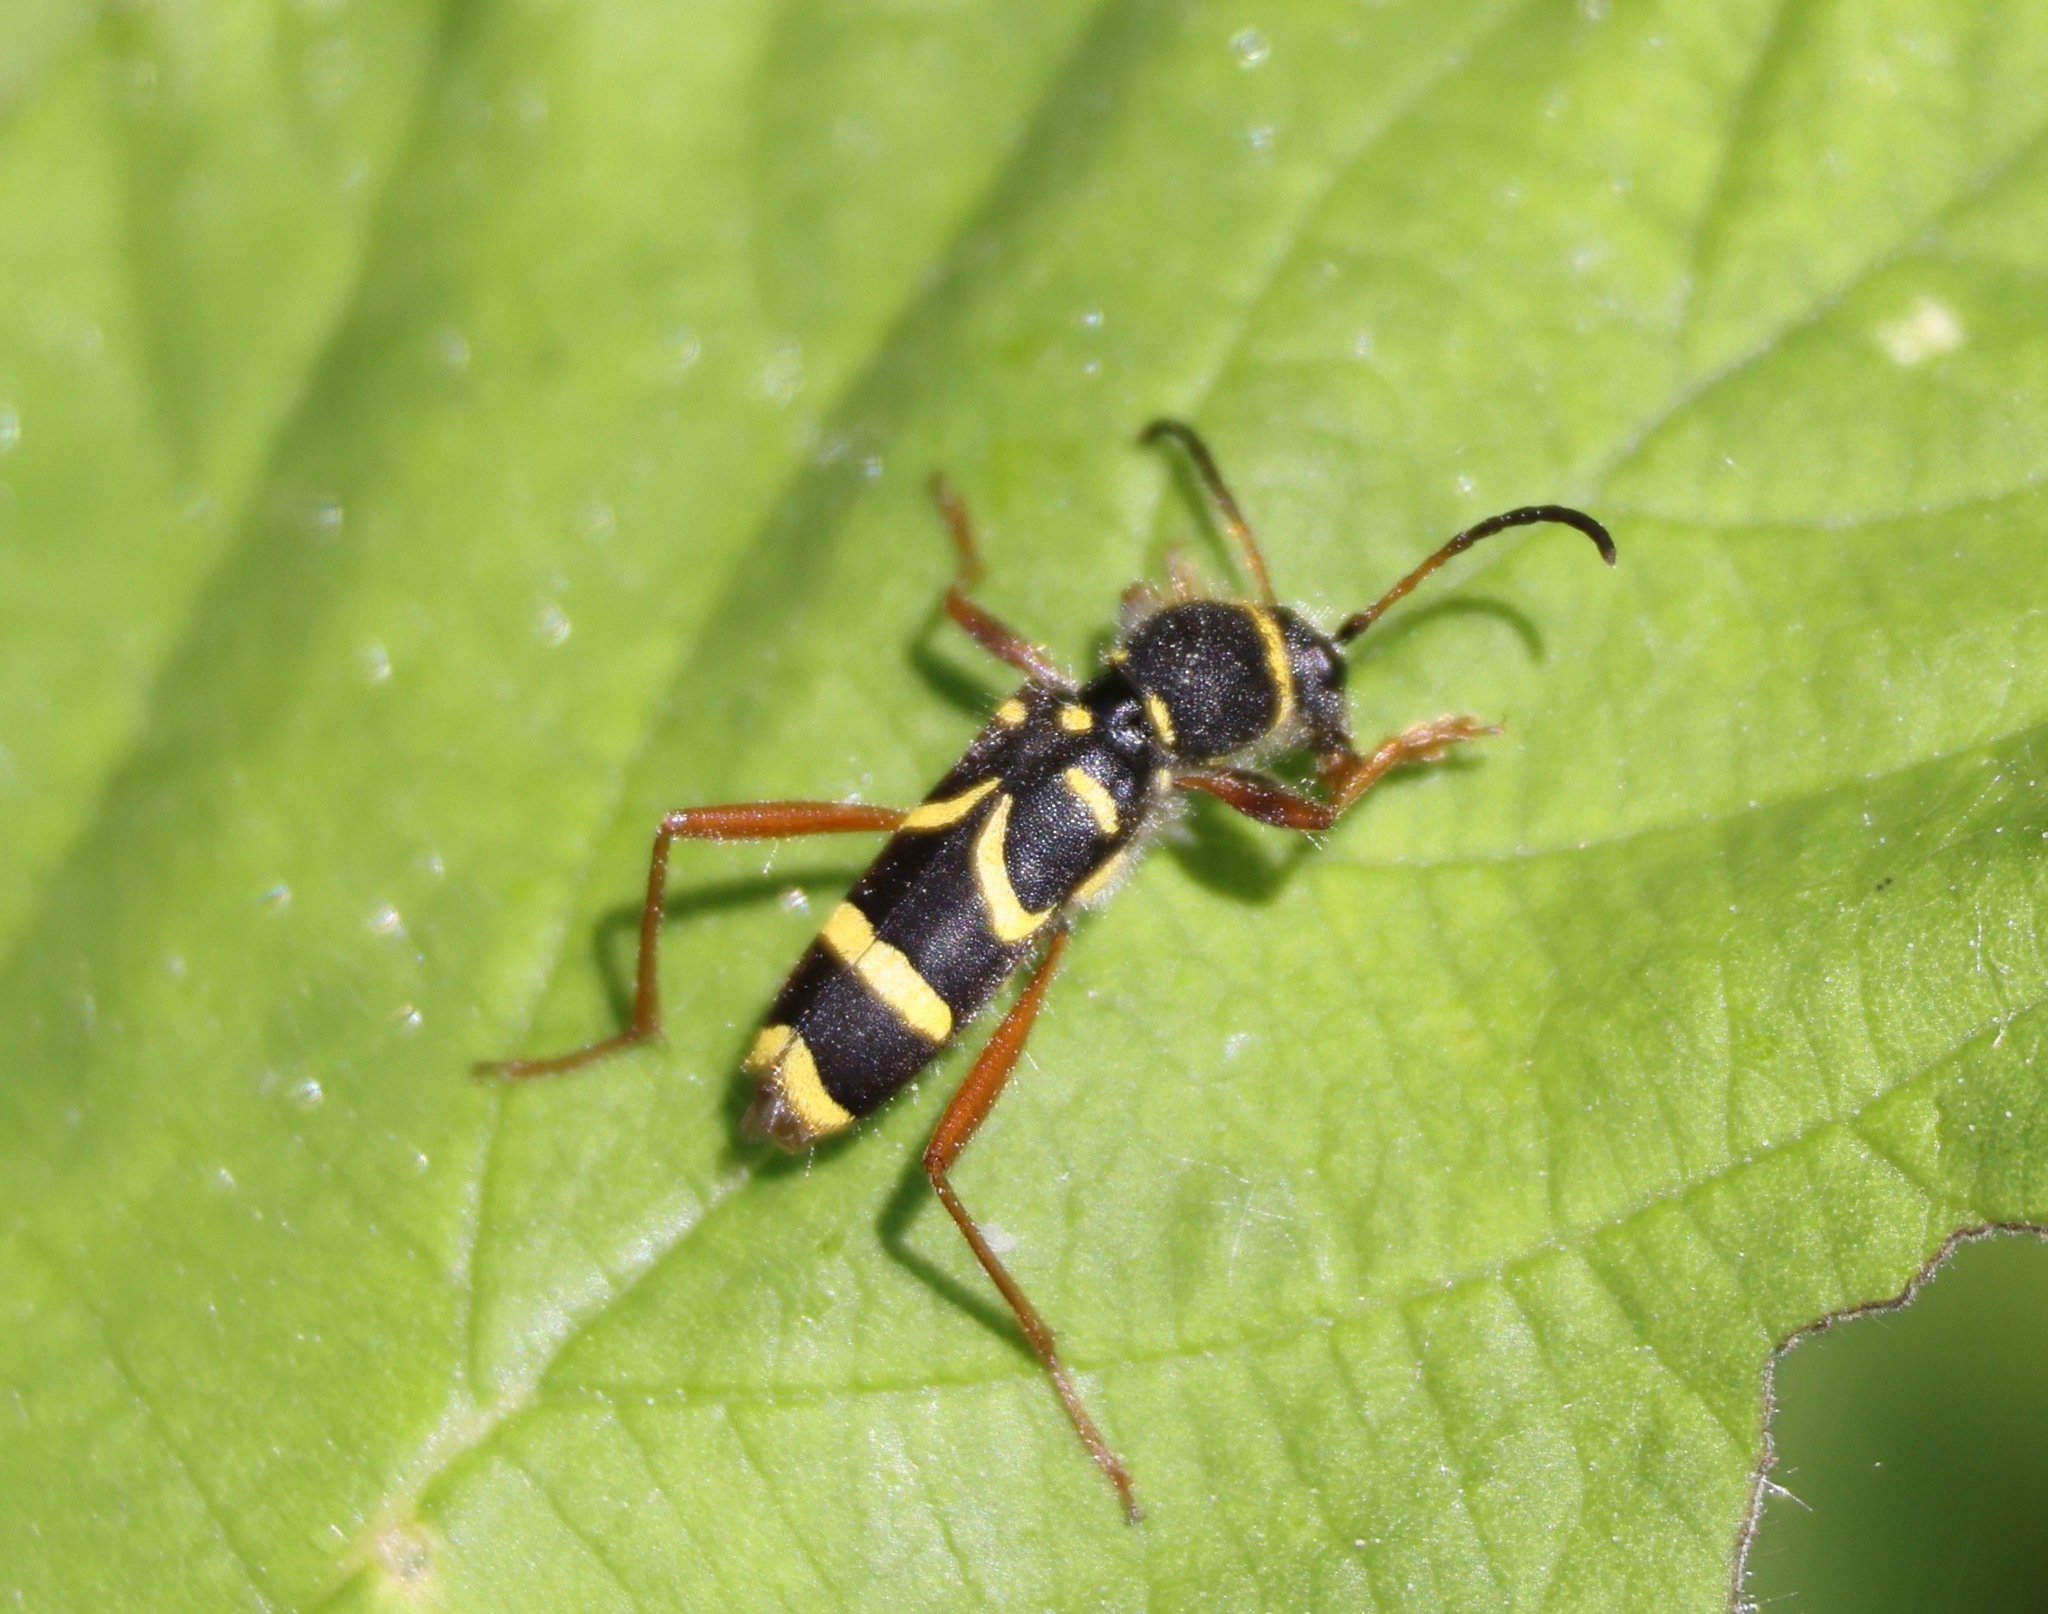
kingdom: Animalia
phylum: Arthropoda
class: Insecta
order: Coleoptera
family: Cerambycidae
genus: Clytus
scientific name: Clytus arietis
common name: Wasp beetle
